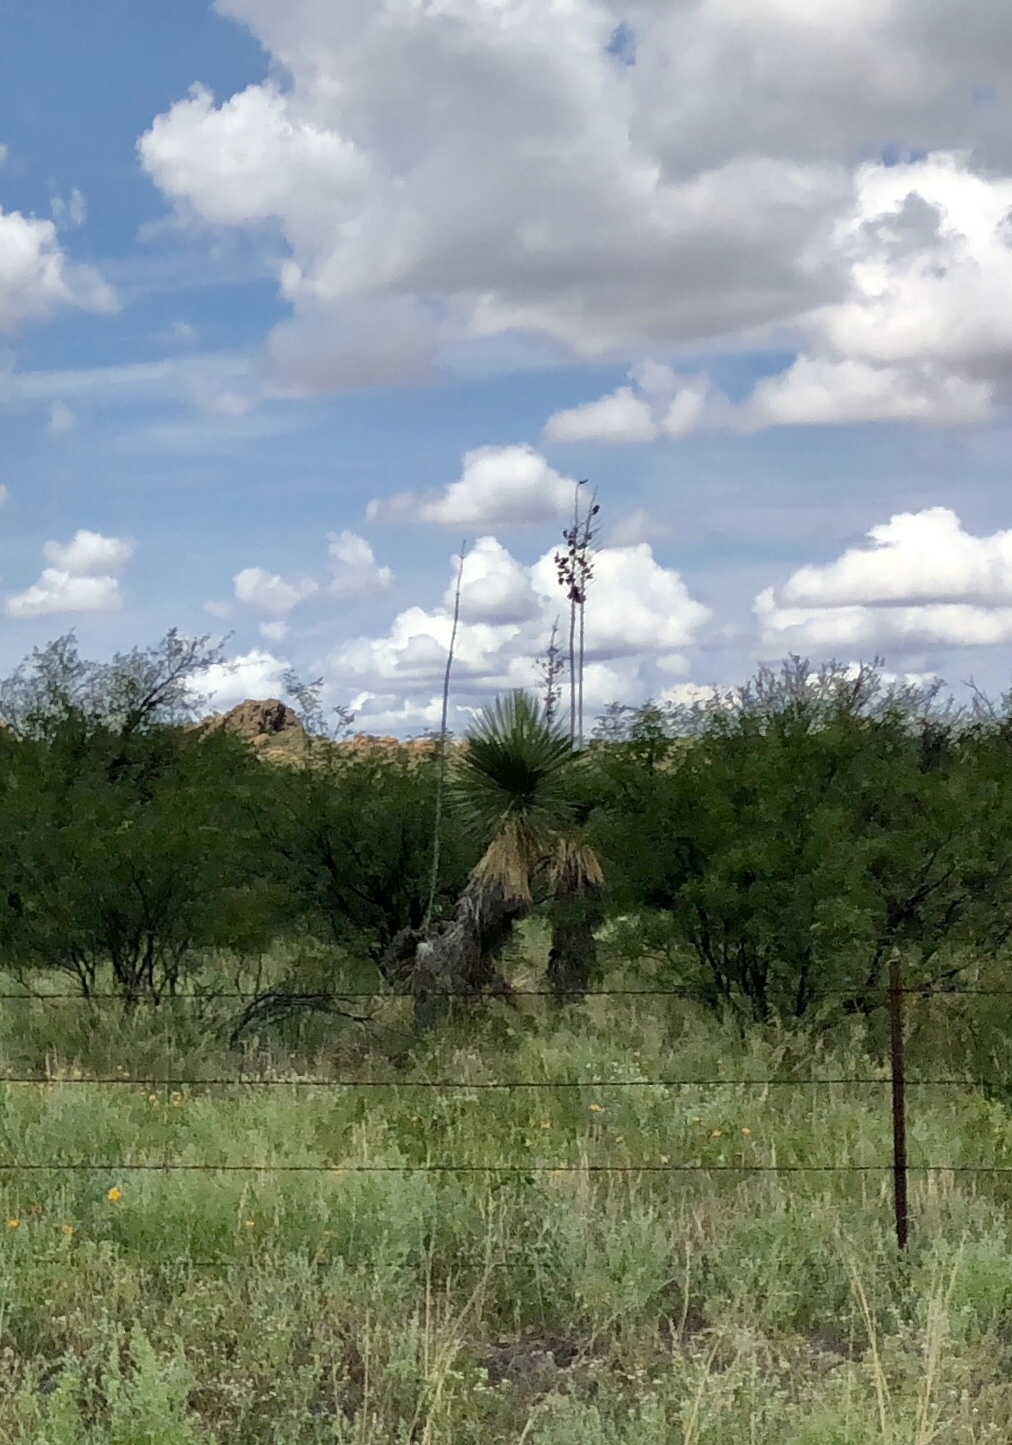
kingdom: Plantae
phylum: Tracheophyta
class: Liliopsida
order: Asparagales
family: Asparagaceae
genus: Yucca
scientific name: Yucca elata
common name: Palmella
